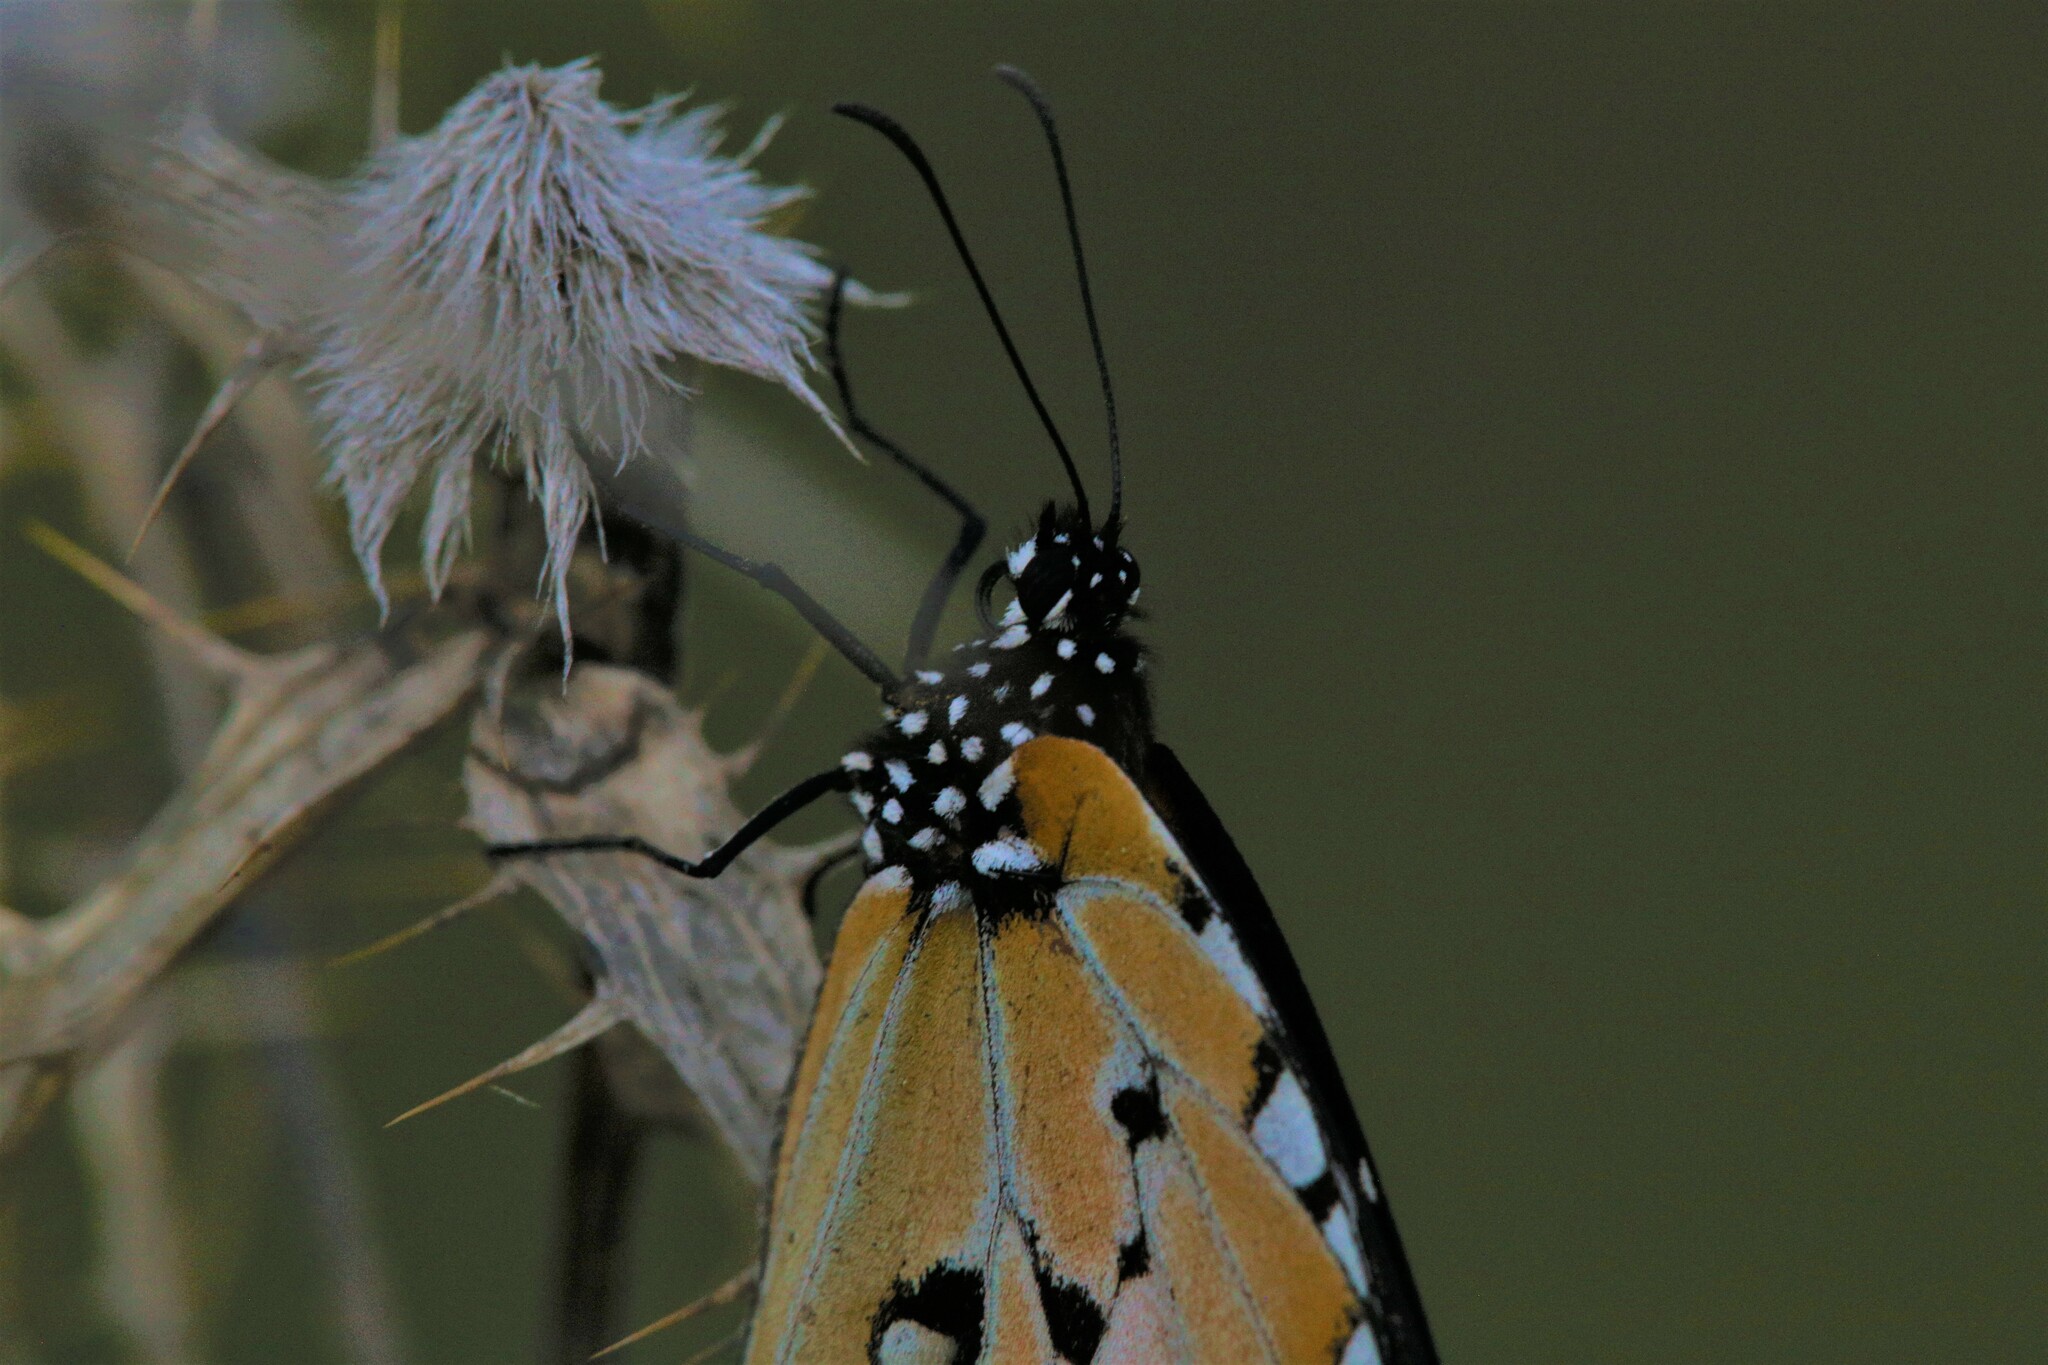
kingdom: Animalia
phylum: Arthropoda
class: Insecta
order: Lepidoptera
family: Nymphalidae
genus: Danaus
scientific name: Danaus chrysippus
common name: Plain tiger
